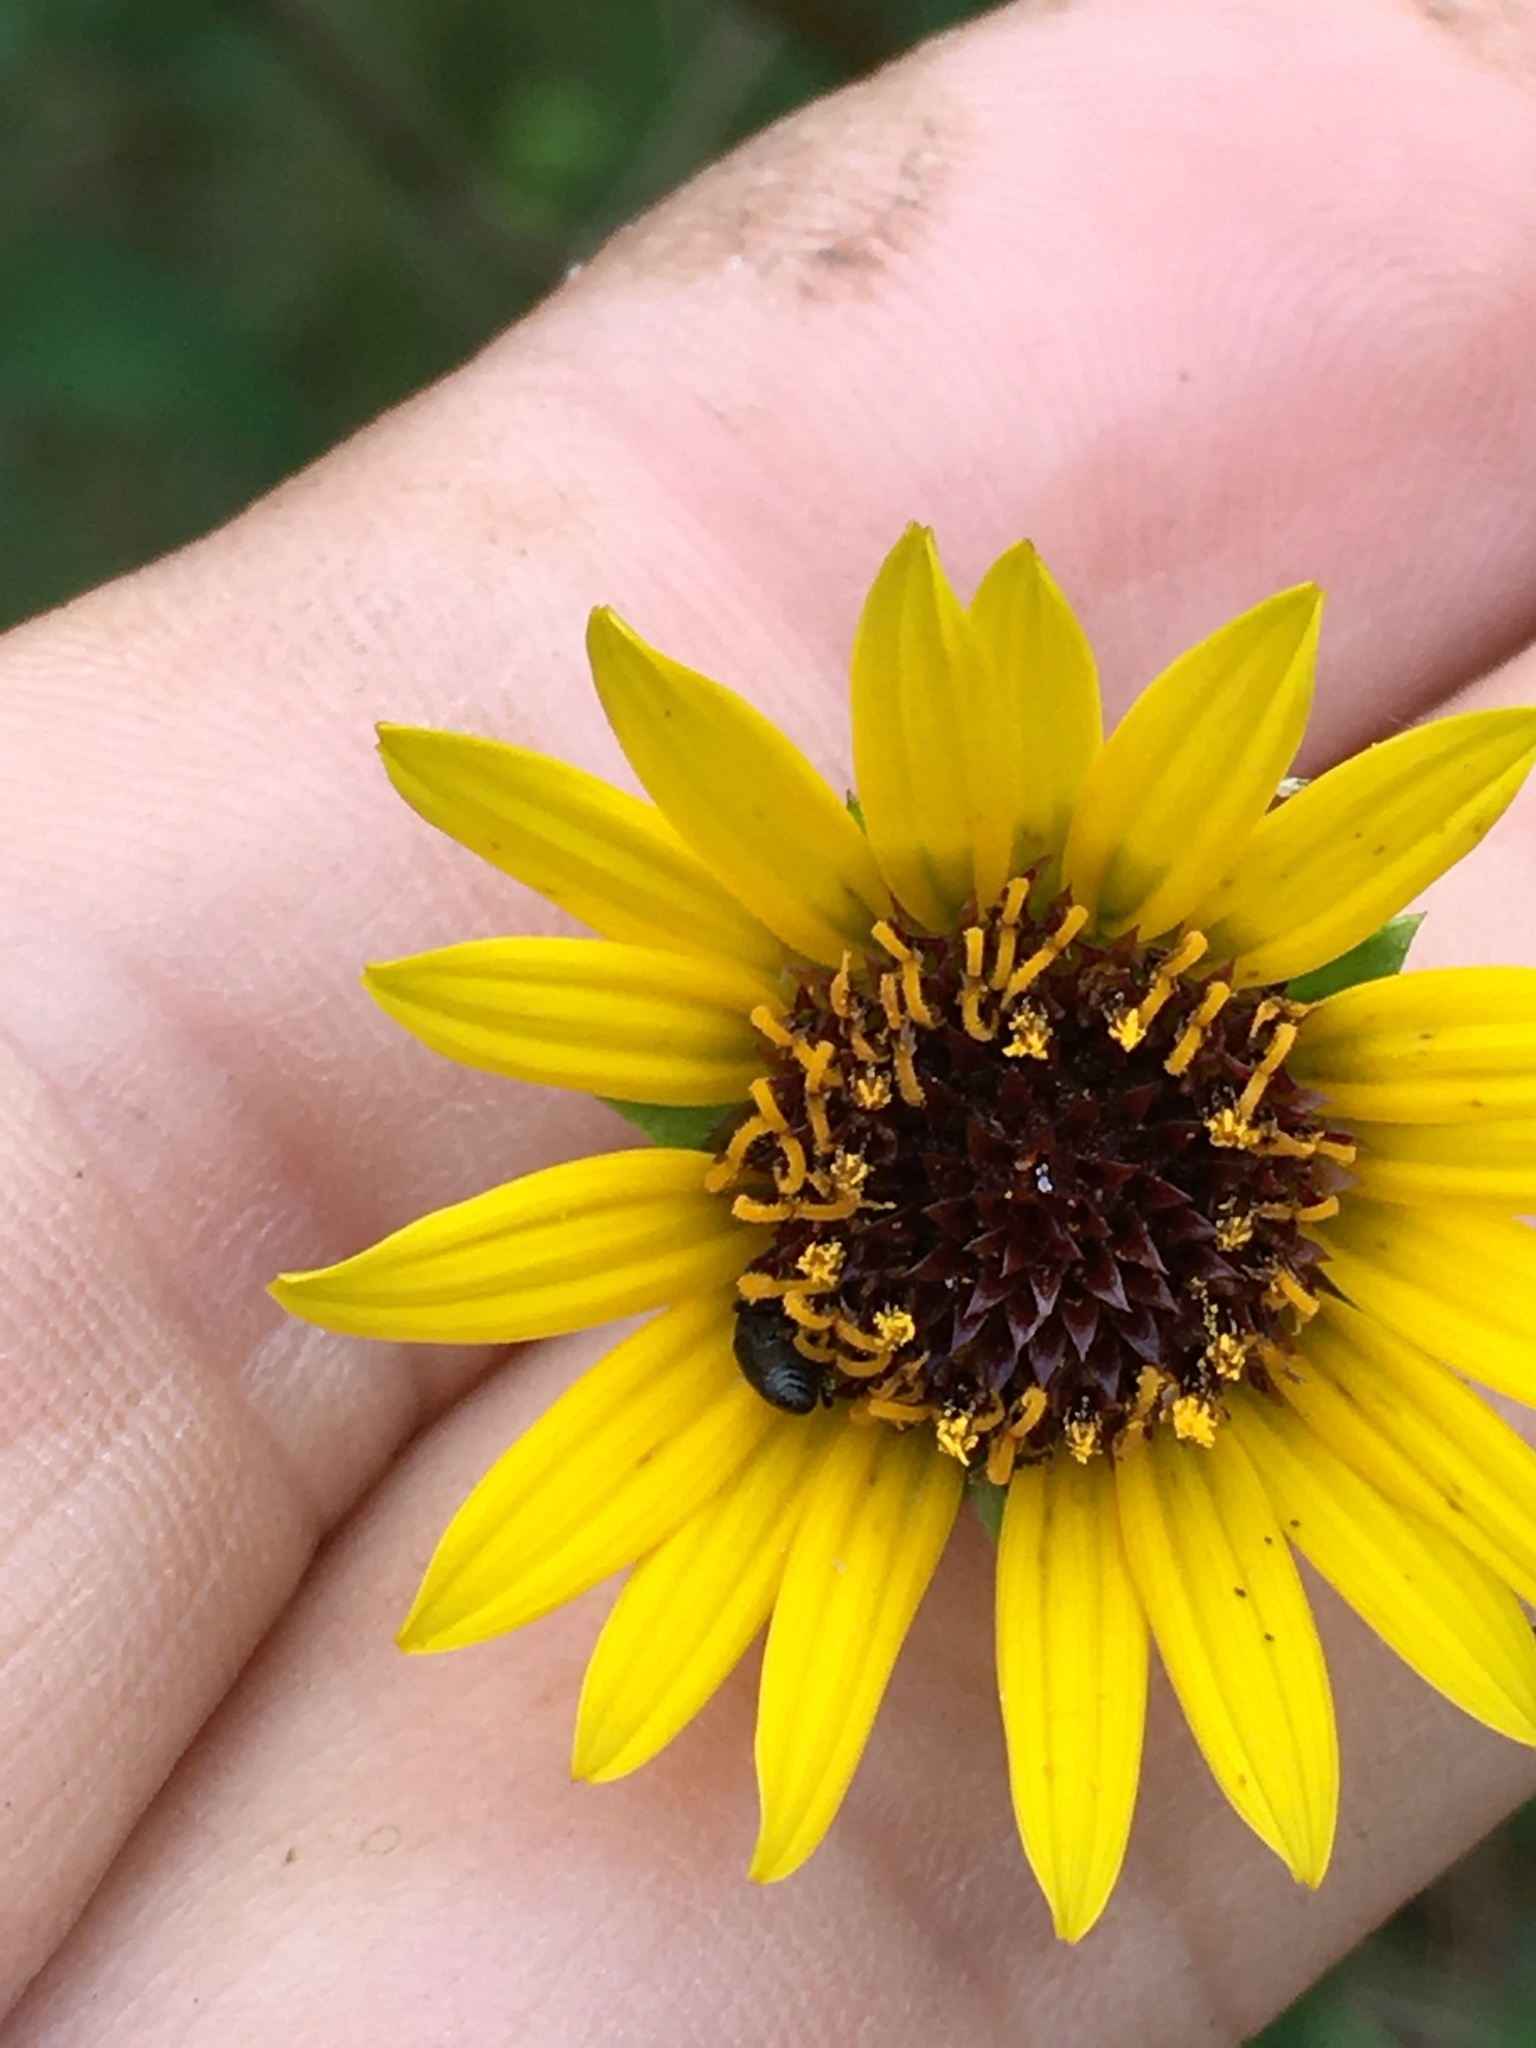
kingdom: Plantae
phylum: Tracheophyta
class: Magnoliopsida
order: Asterales
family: Asteraceae
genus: Helianthus
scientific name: Helianthus atrorubens
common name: Dark-eyed sunflower
